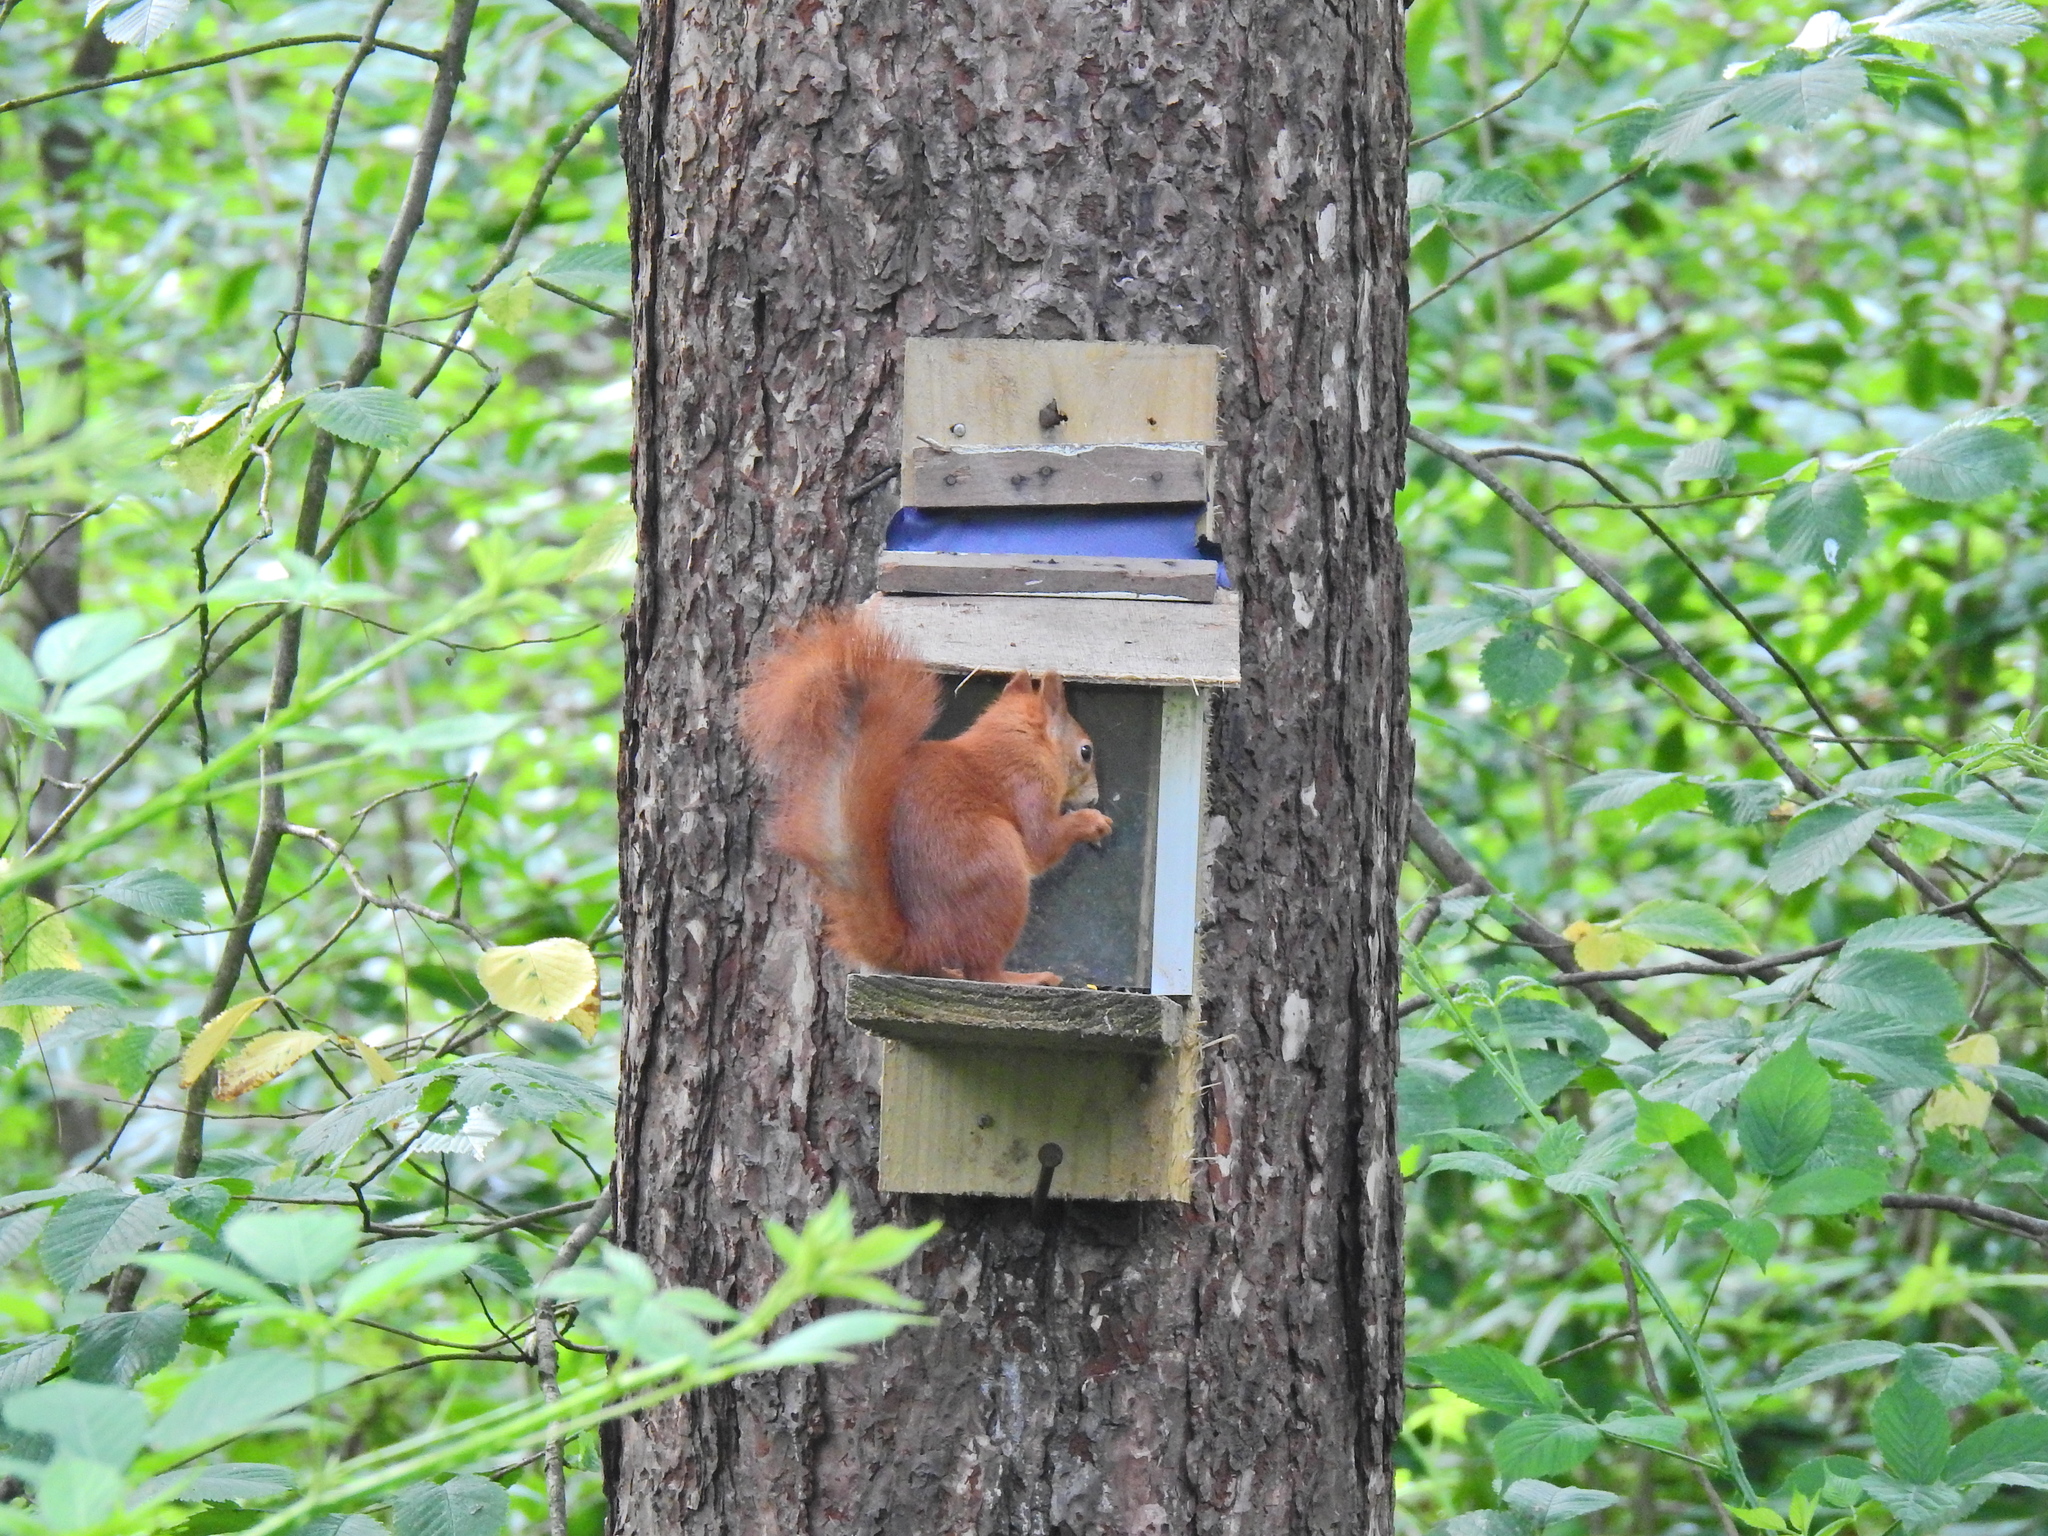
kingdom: Animalia
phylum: Chordata
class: Mammalia
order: Rodentia
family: Sciuridae
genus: Sciurus
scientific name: Sciurus vulgaris
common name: Eurasian red squirrel
